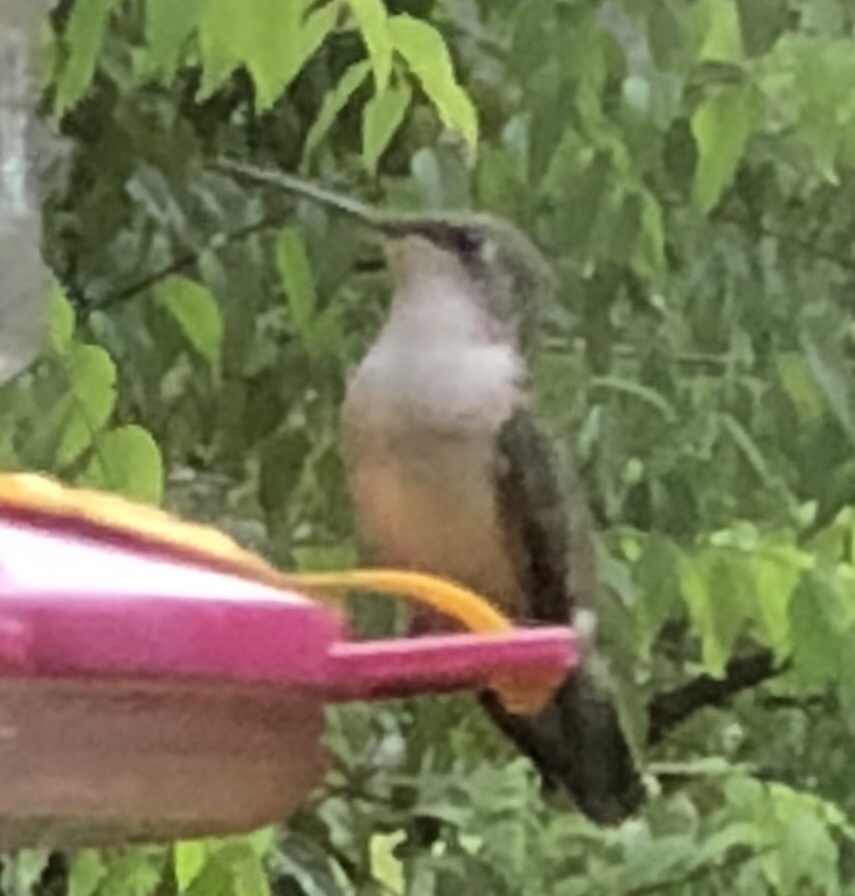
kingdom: Animalia
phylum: Chordata
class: Aves
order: Apodiformes
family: Trochilidae
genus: Archilochus
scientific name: Archilochus colubris
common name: Ruby-throated hummingbird
